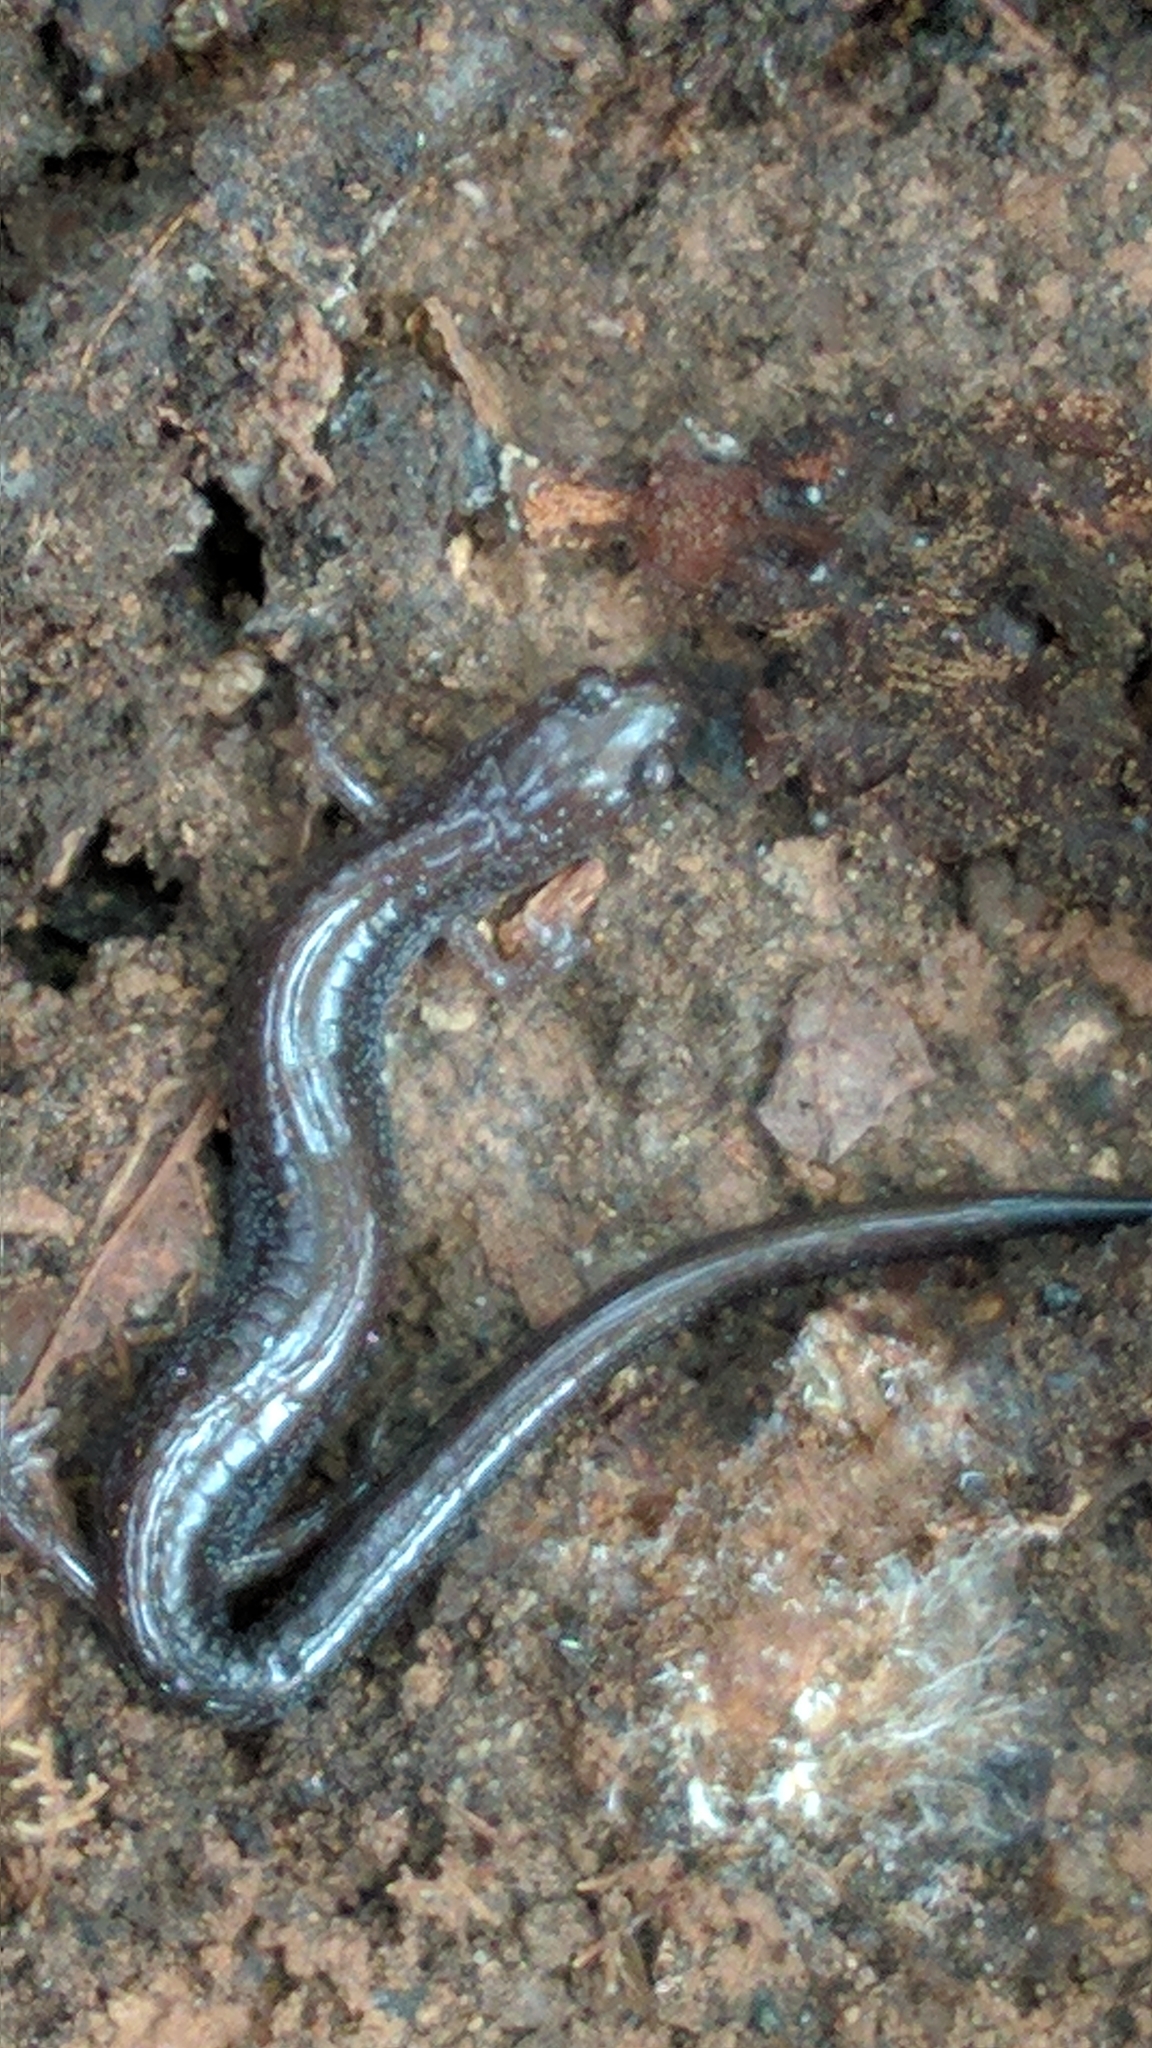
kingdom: Animalia
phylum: Chordata
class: Amphibia
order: Caudata
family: Plethodontidae
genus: Plethodon
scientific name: Plethodon cinereus
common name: Redback salamander
